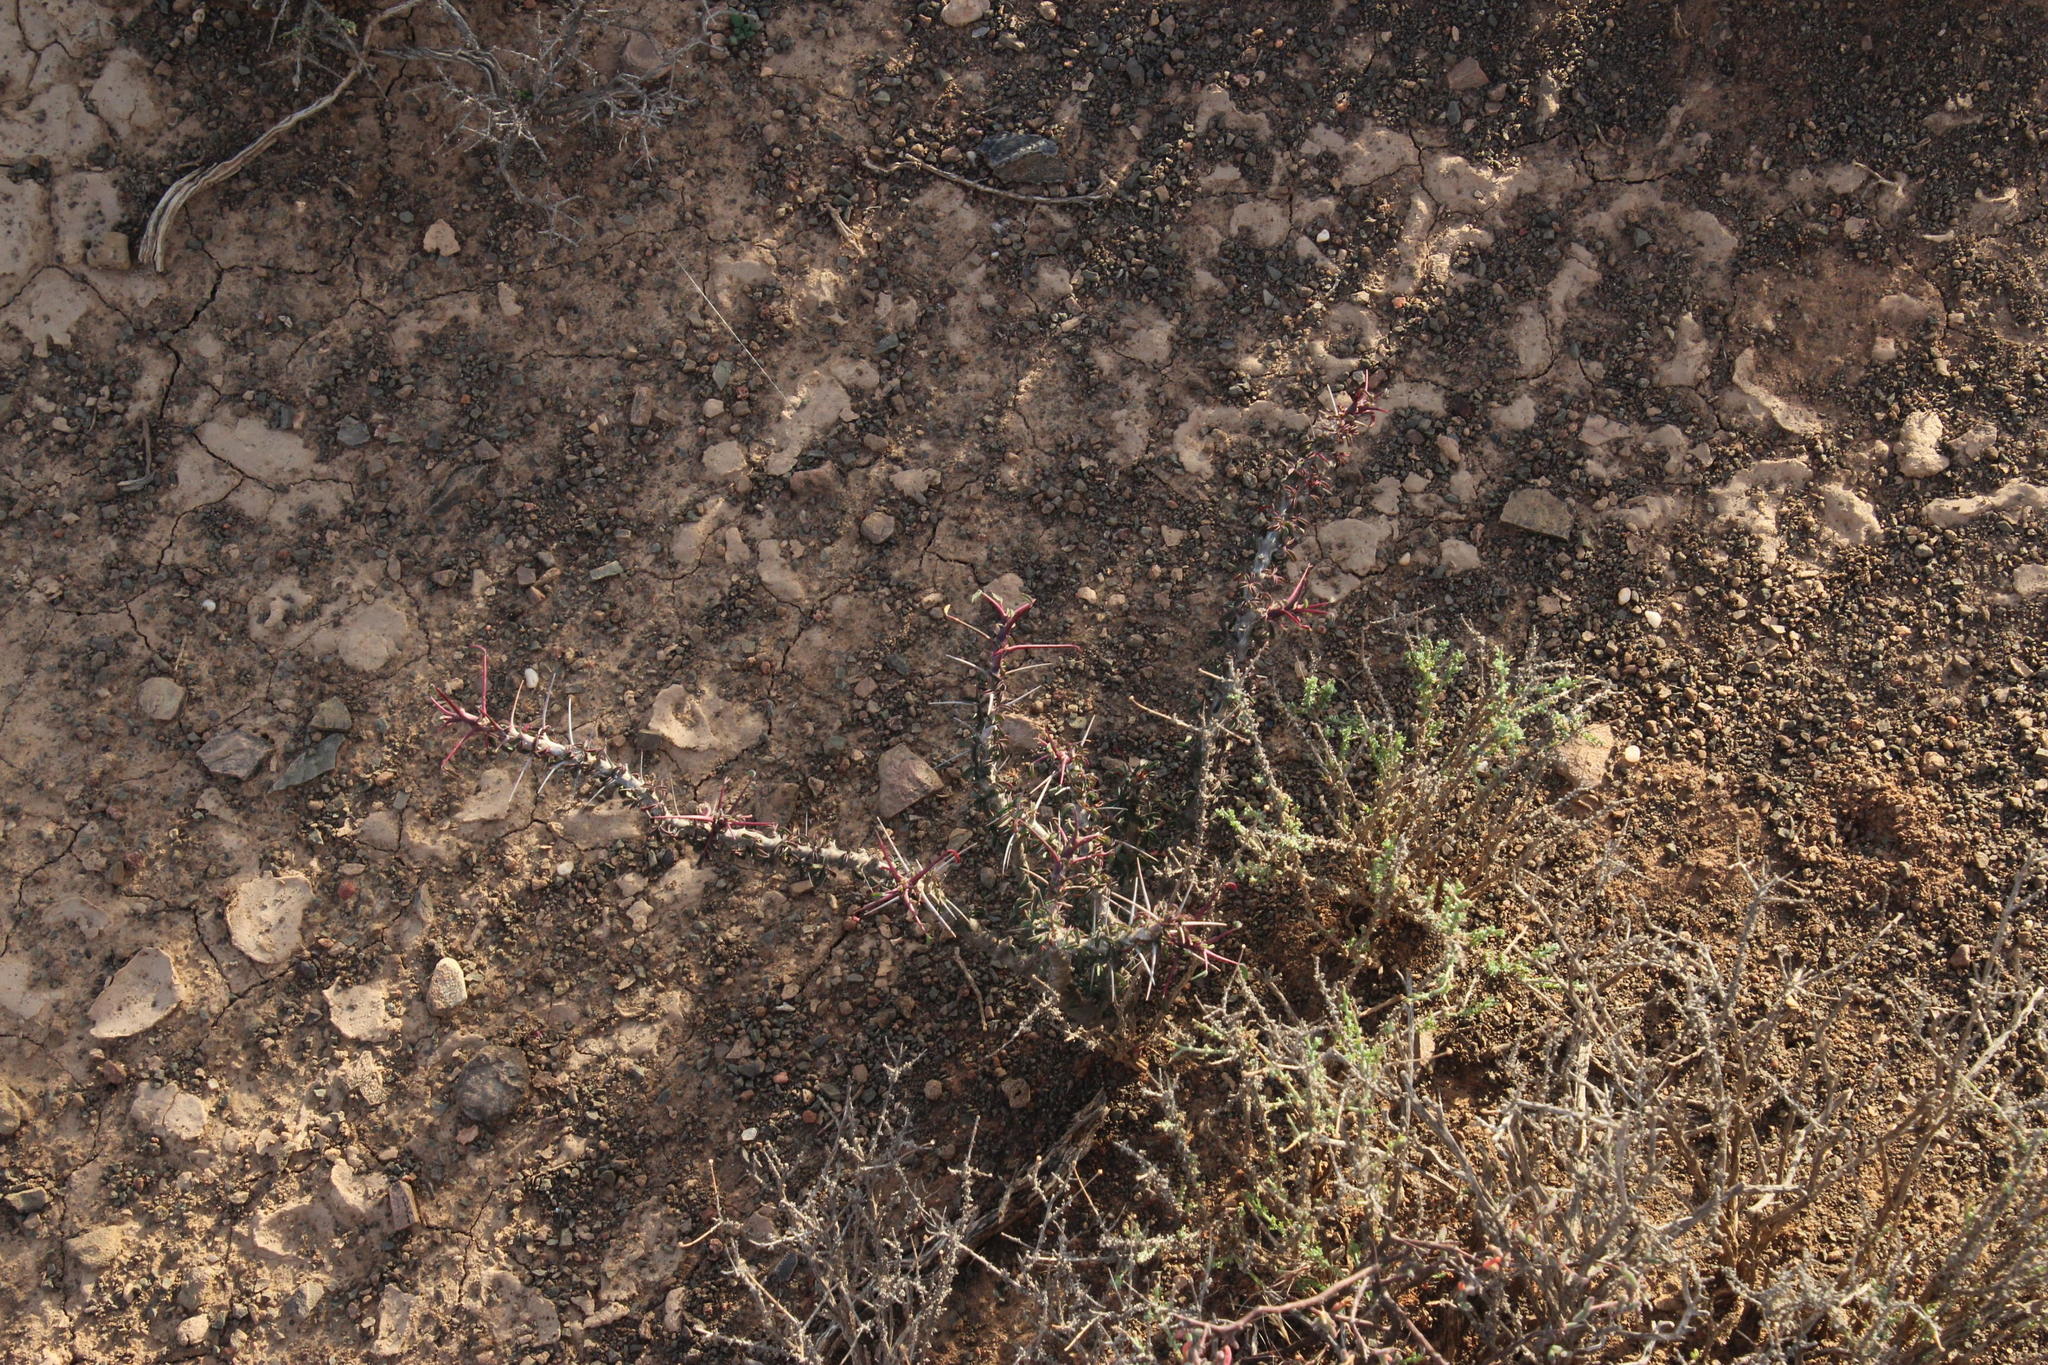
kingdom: Plantae
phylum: Tracheophyta
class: Magnoliopsida
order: Geraniales
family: Geraniaceae
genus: Monsonia
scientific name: Monsonia camdeboensis
